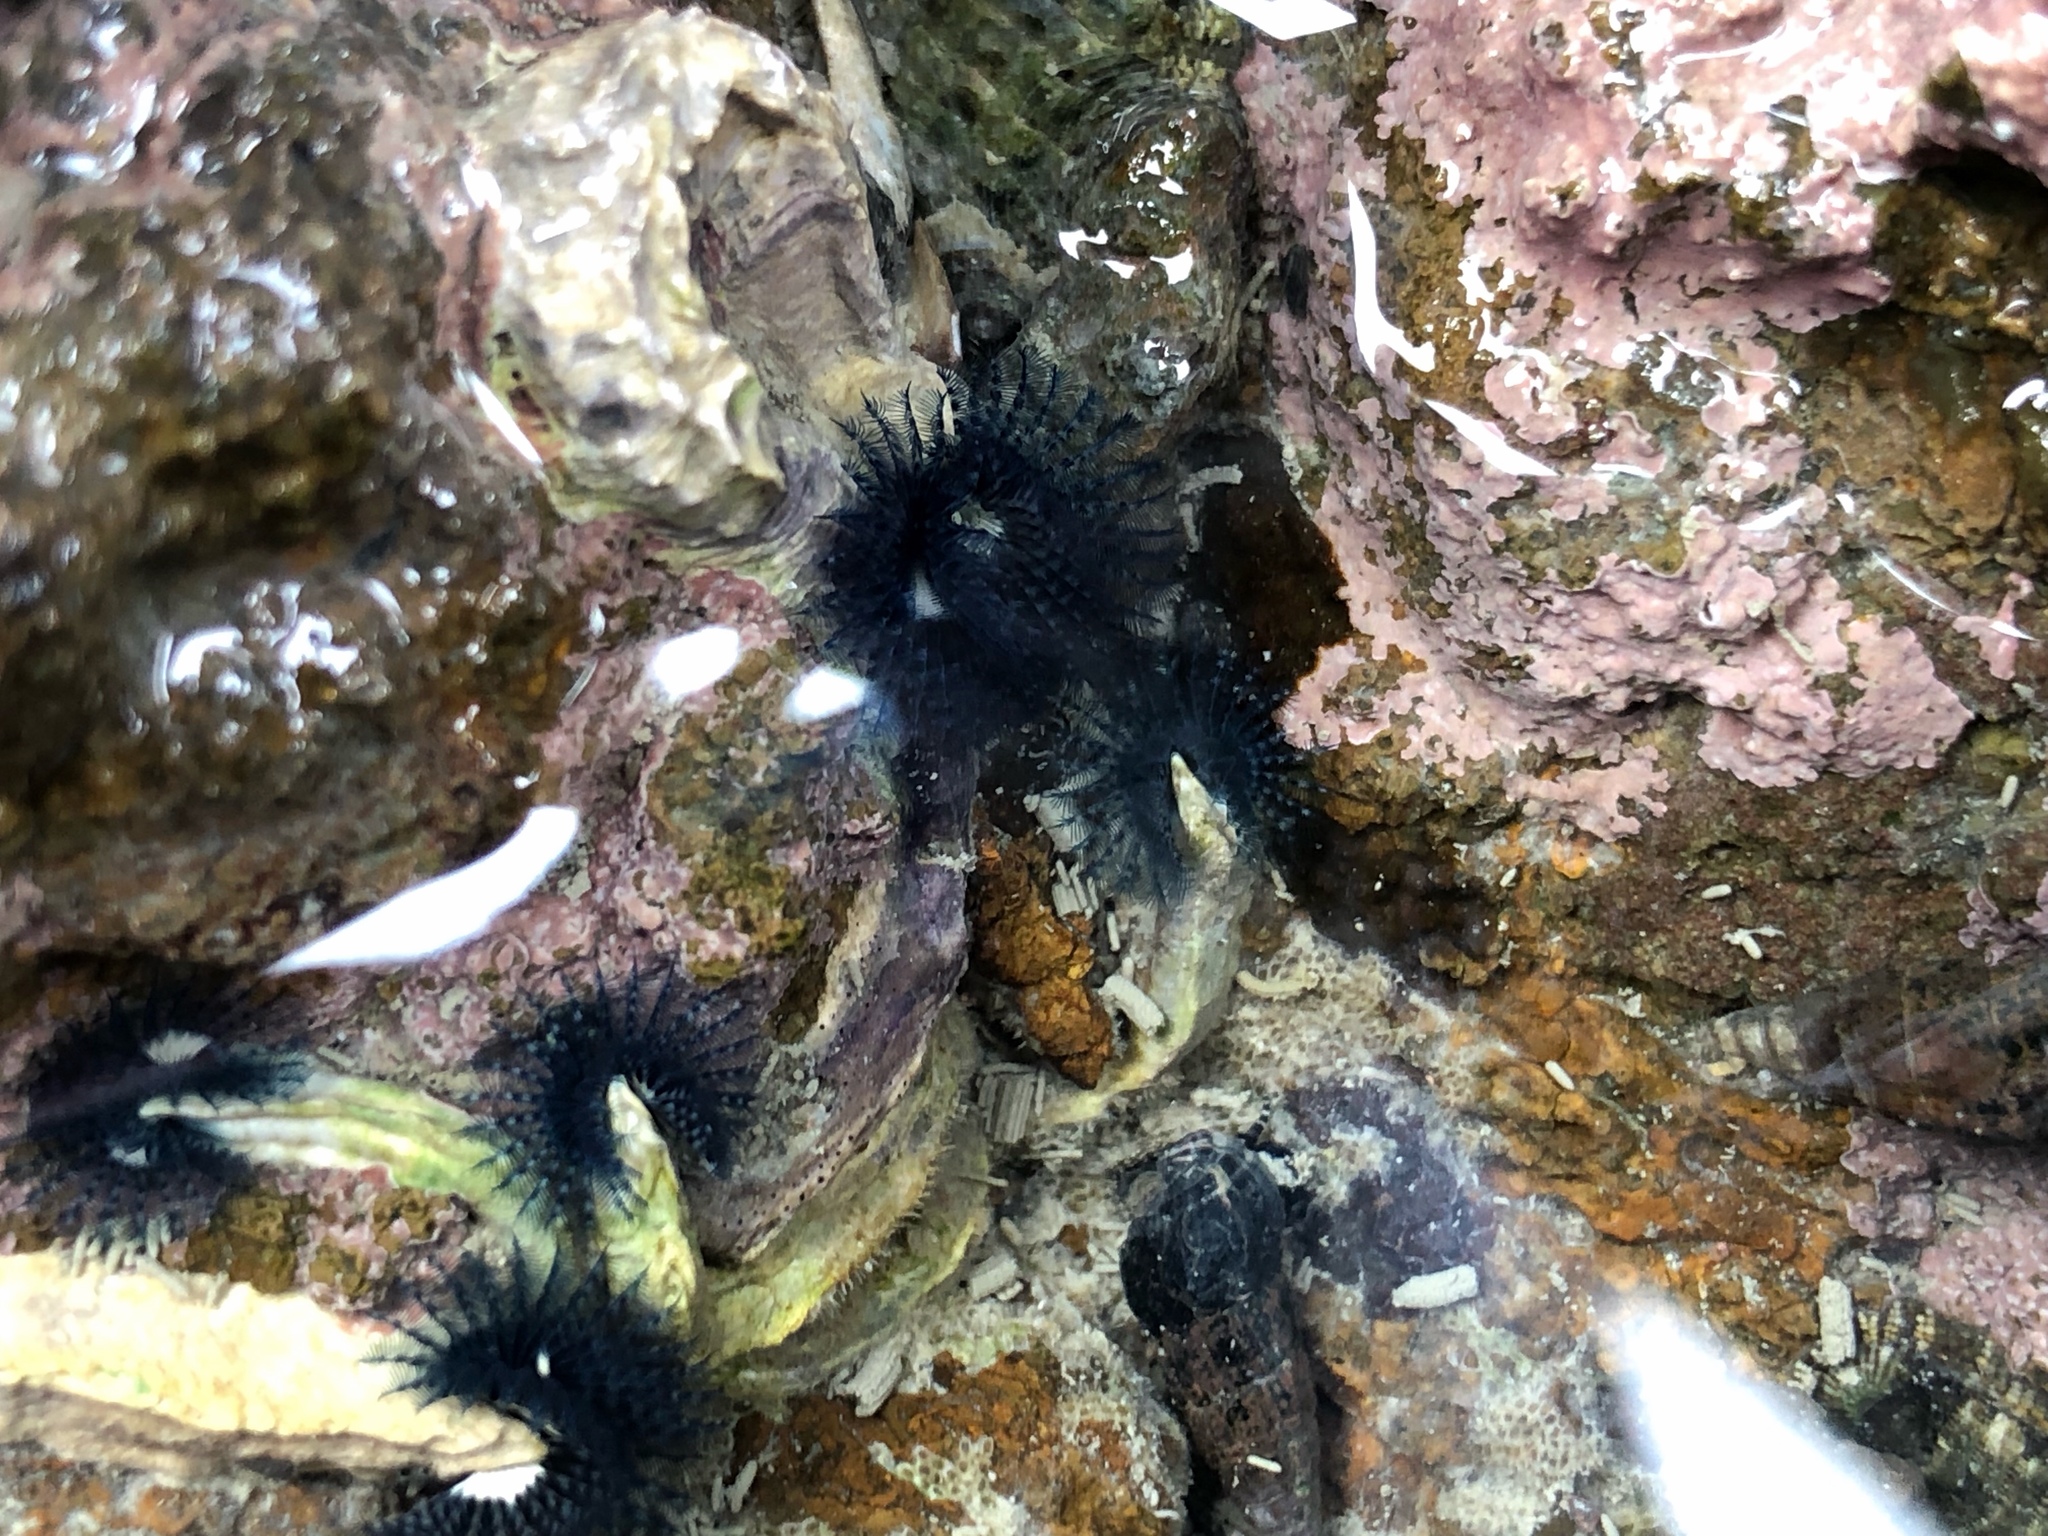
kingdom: Animalia
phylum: Annelida
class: Polychaeta
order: Sabellida
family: Serpulidae
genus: Spirobranchus
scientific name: Spirobranchus cariniferus
